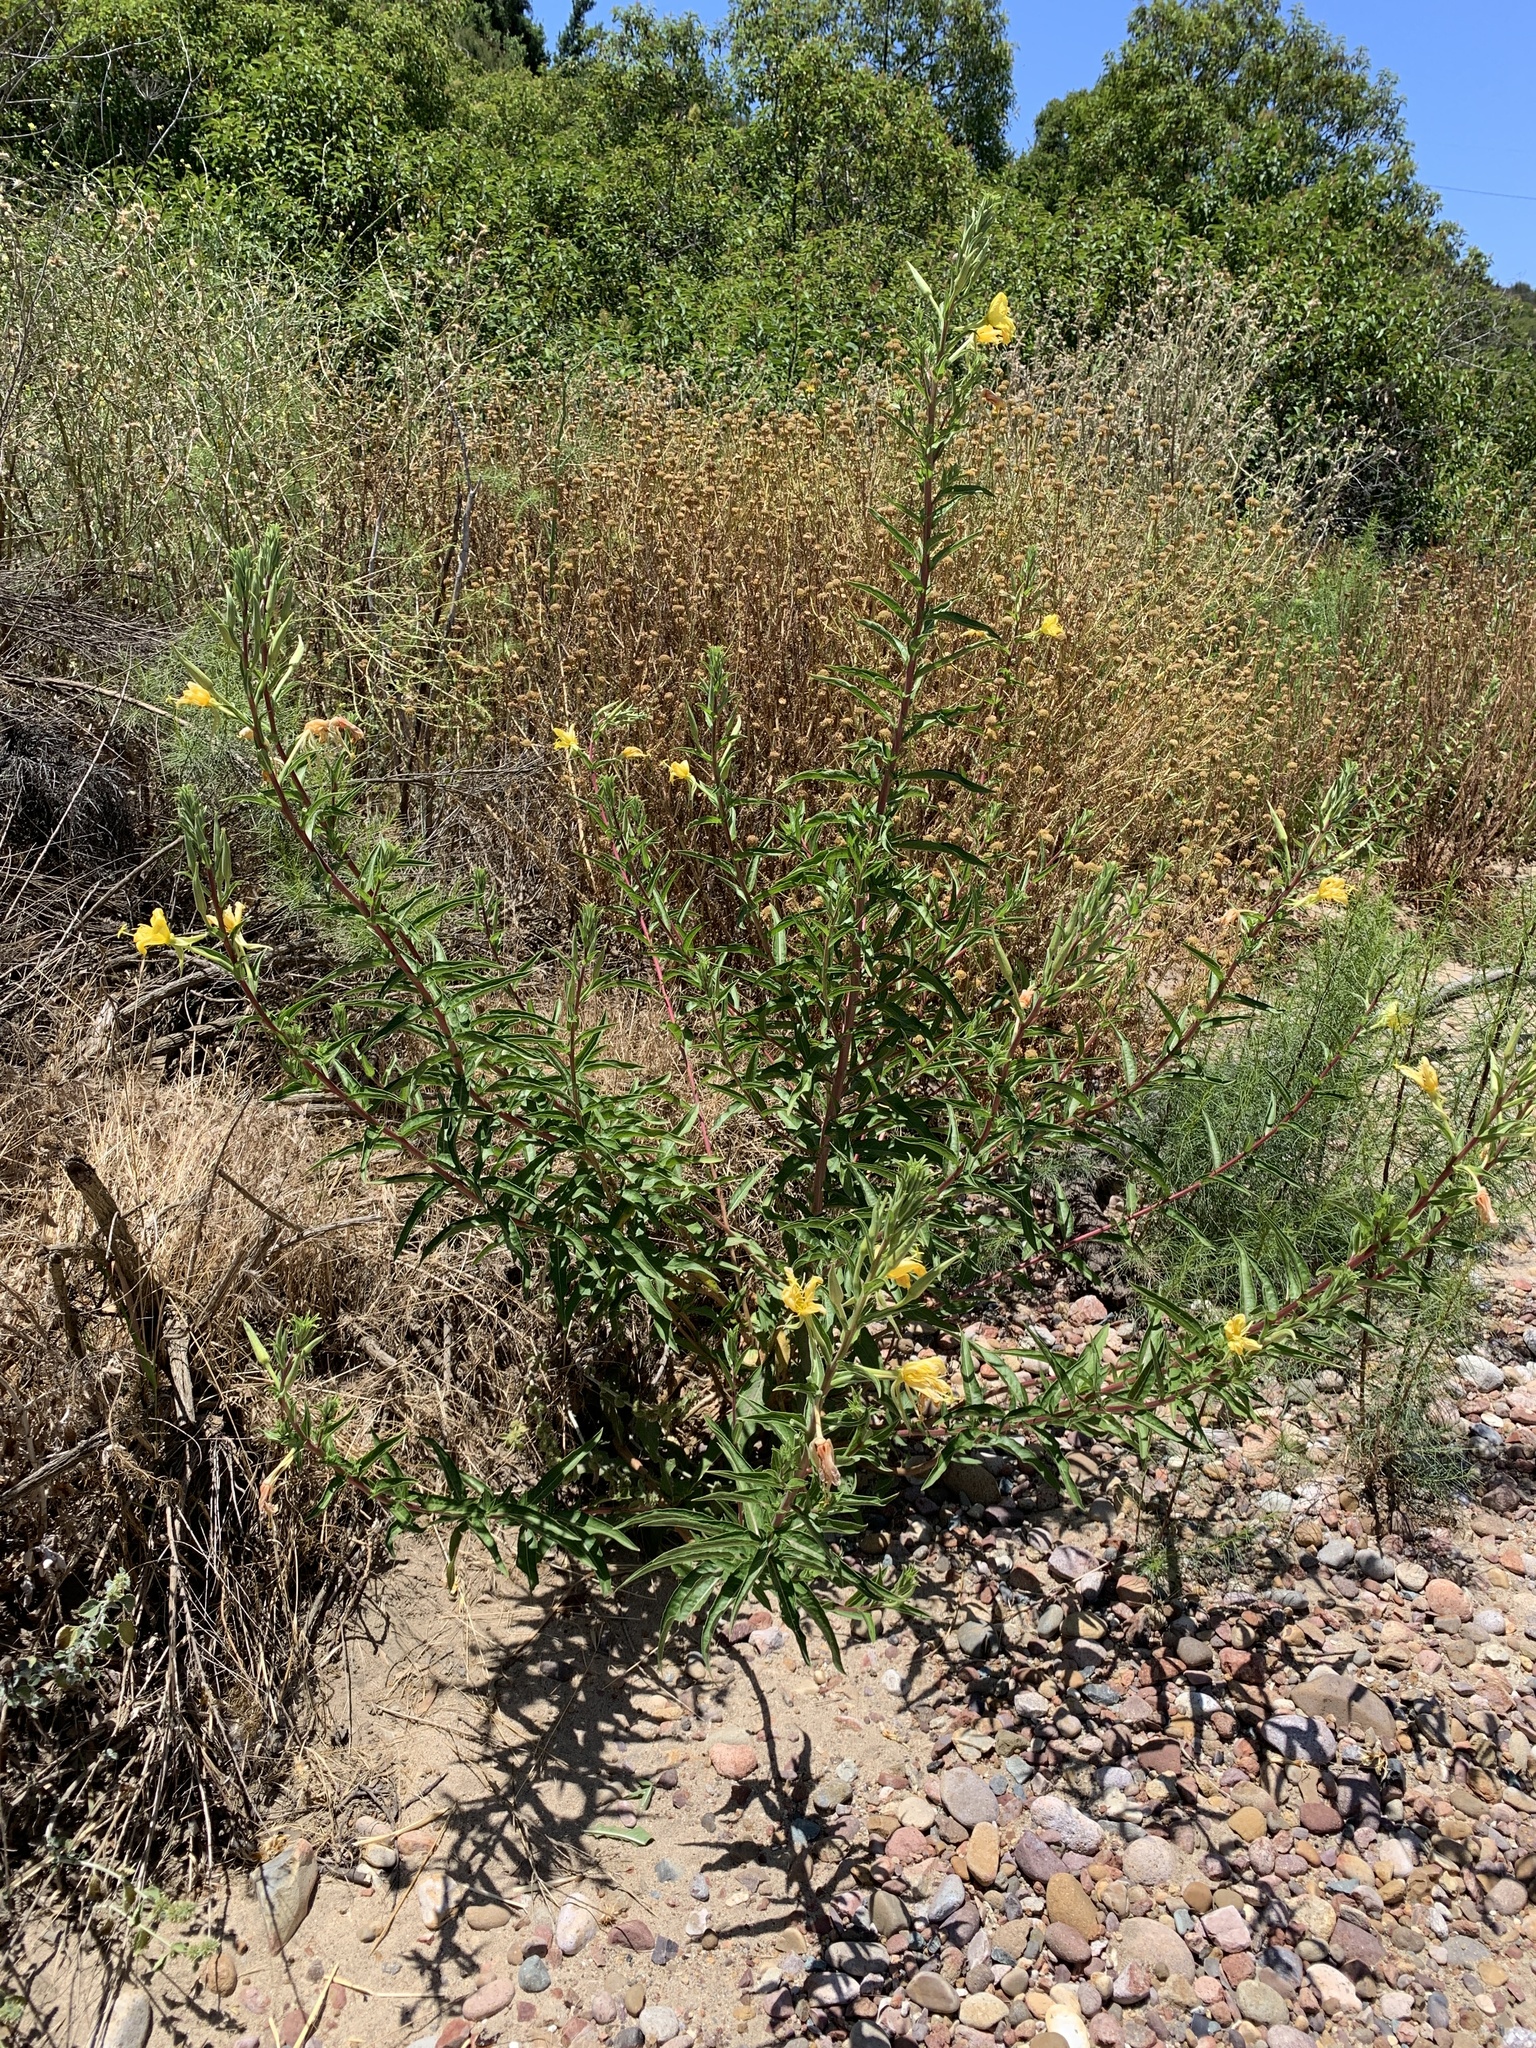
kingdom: Plantae
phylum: Tracheophyta
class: Magnoliopsida
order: Myrtales
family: Onagraceae
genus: Oenothera
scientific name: Oenothera elata
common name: Hooker's evening-primrose
